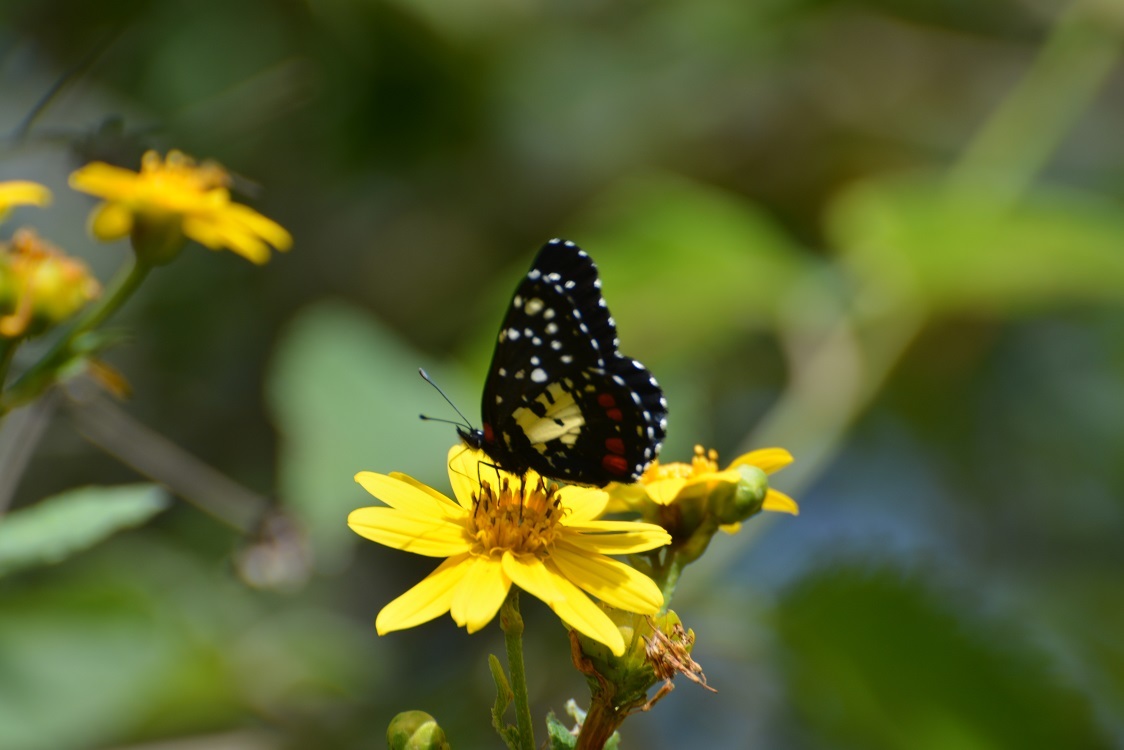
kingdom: Animalia
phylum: Arthropoda
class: Insecta
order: Lepidoptera
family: Nymphalidae
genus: Chlosyne
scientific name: Chlosyne erodyle
